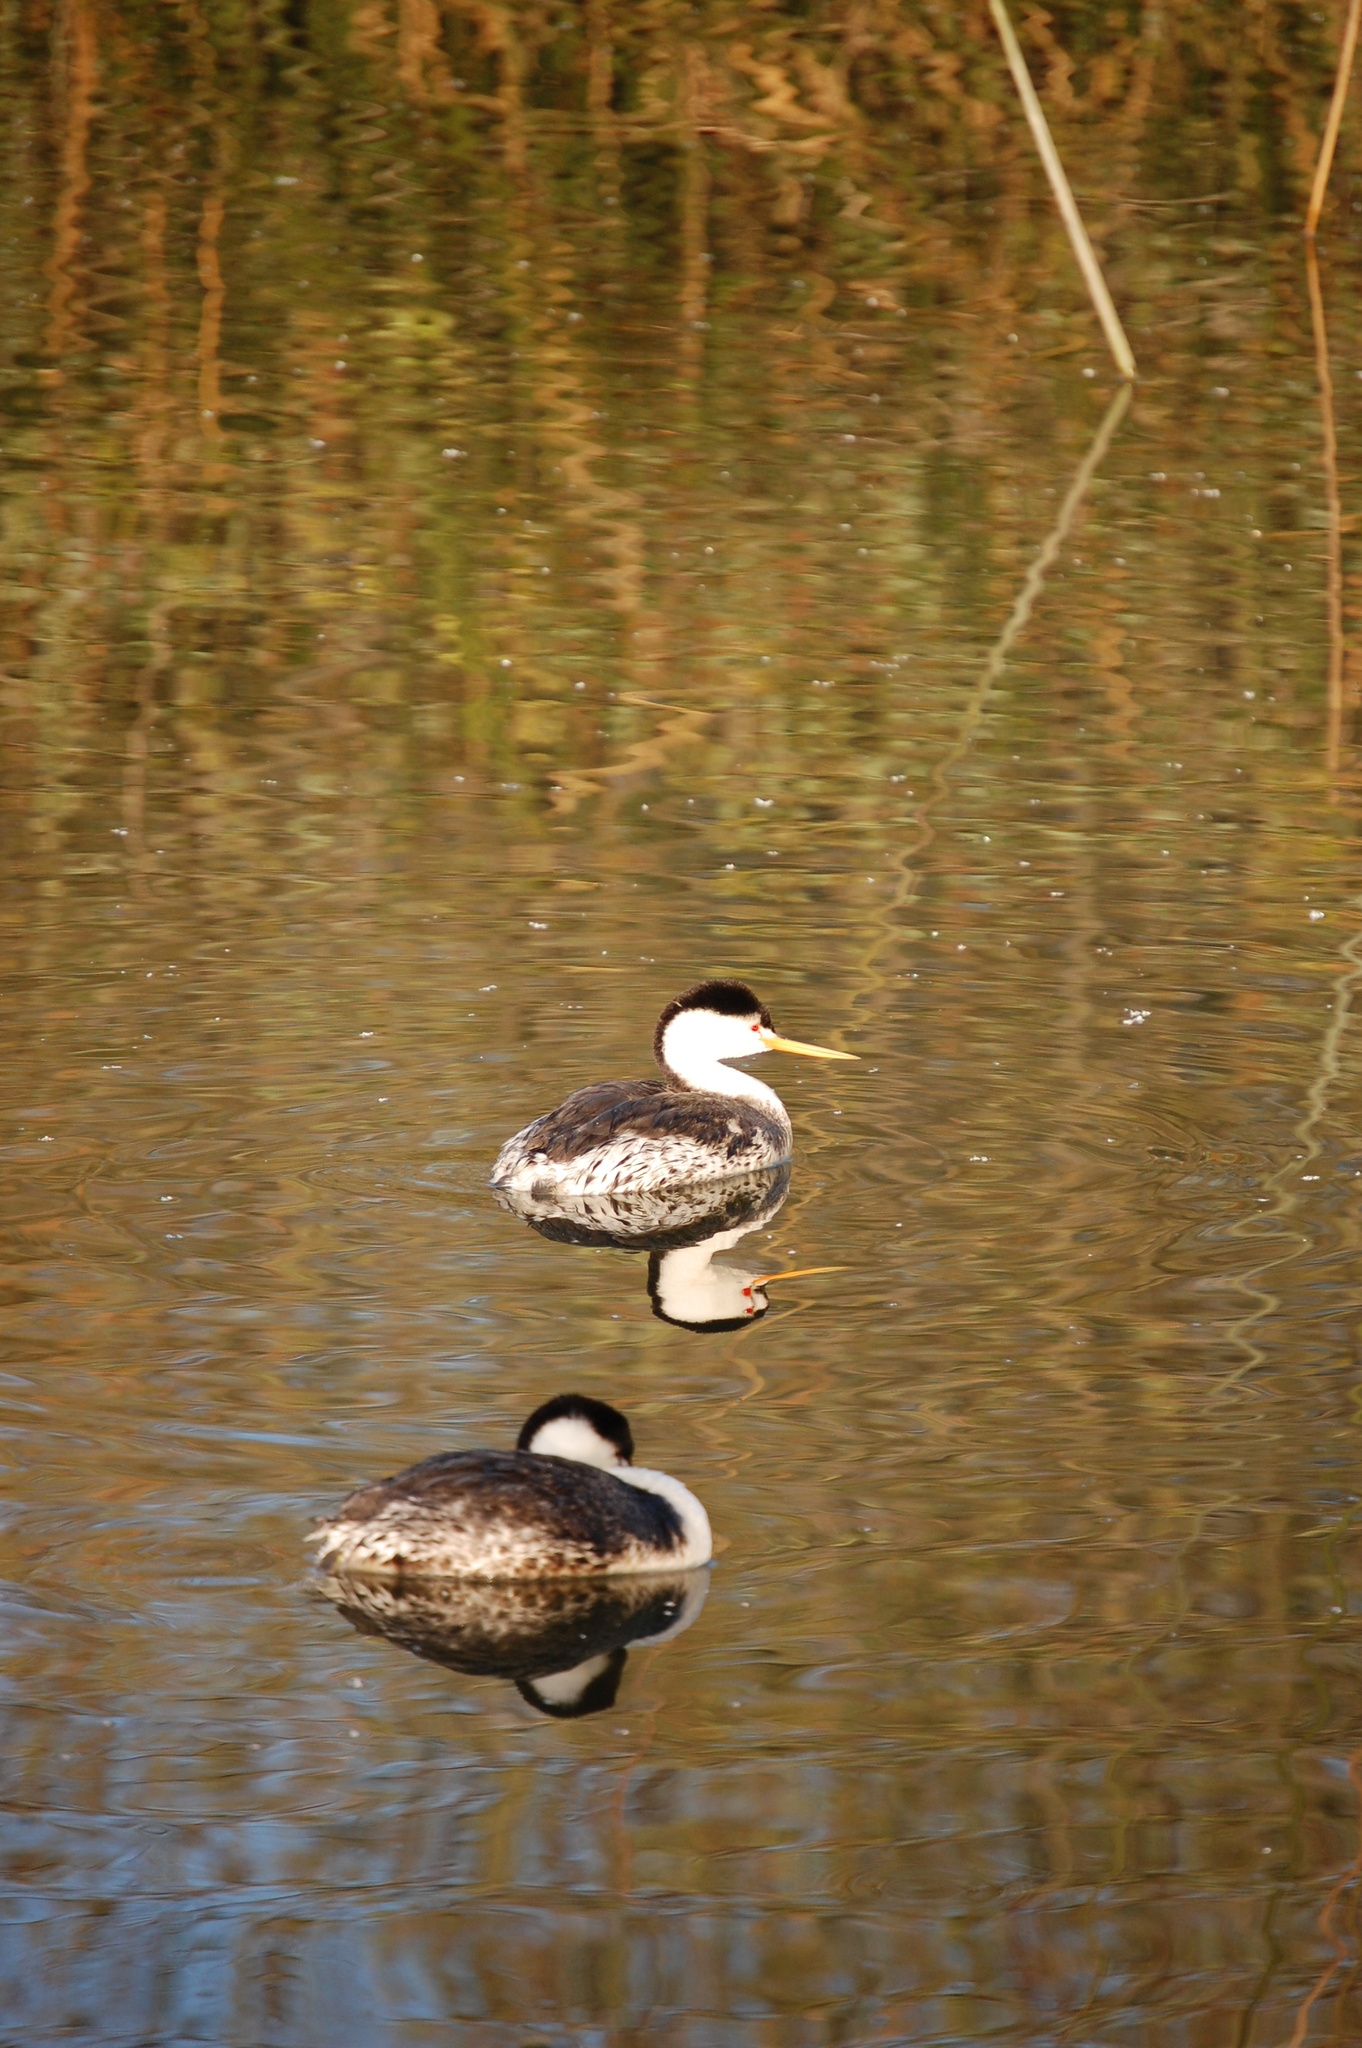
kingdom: Animalia
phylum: Chordata
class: Aves
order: Podicipediformes
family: Podicipedidae
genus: Aechmophorus
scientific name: Aechmophorus clarkii
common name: Clark's grebe
